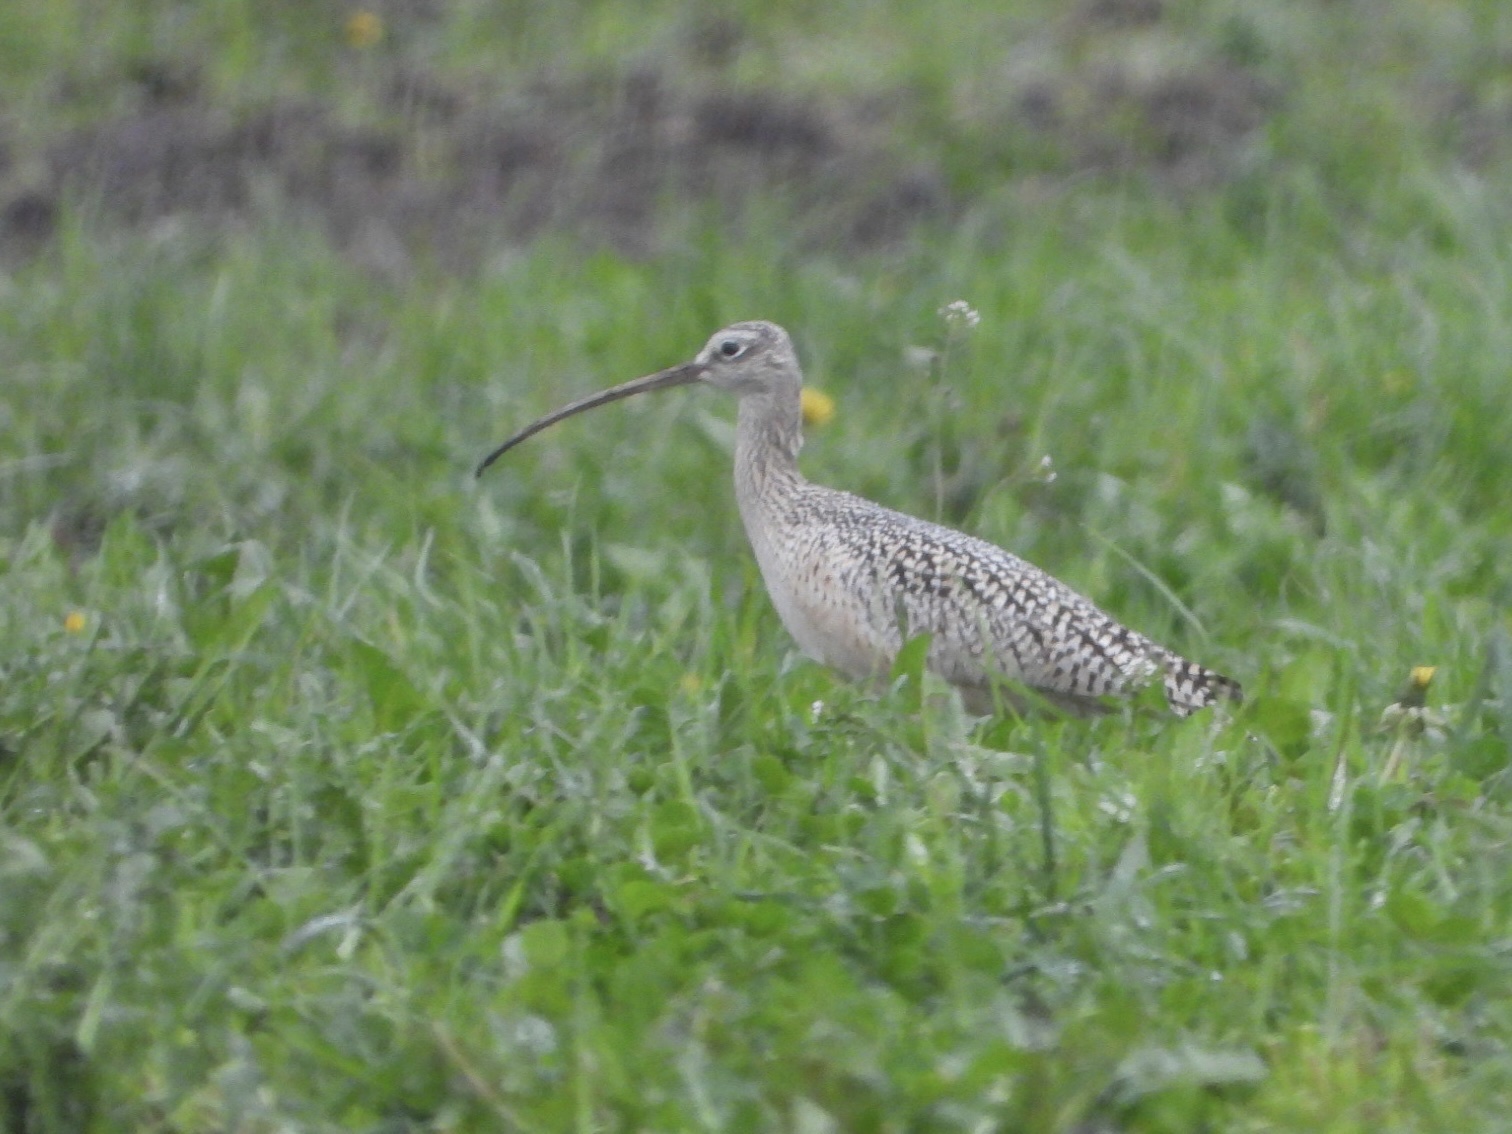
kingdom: Animalia
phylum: Chordata
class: Aves
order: Charadriiformes
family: Scolopacidae
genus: Numenius
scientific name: Numenius americanus
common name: Long-billed curlew
